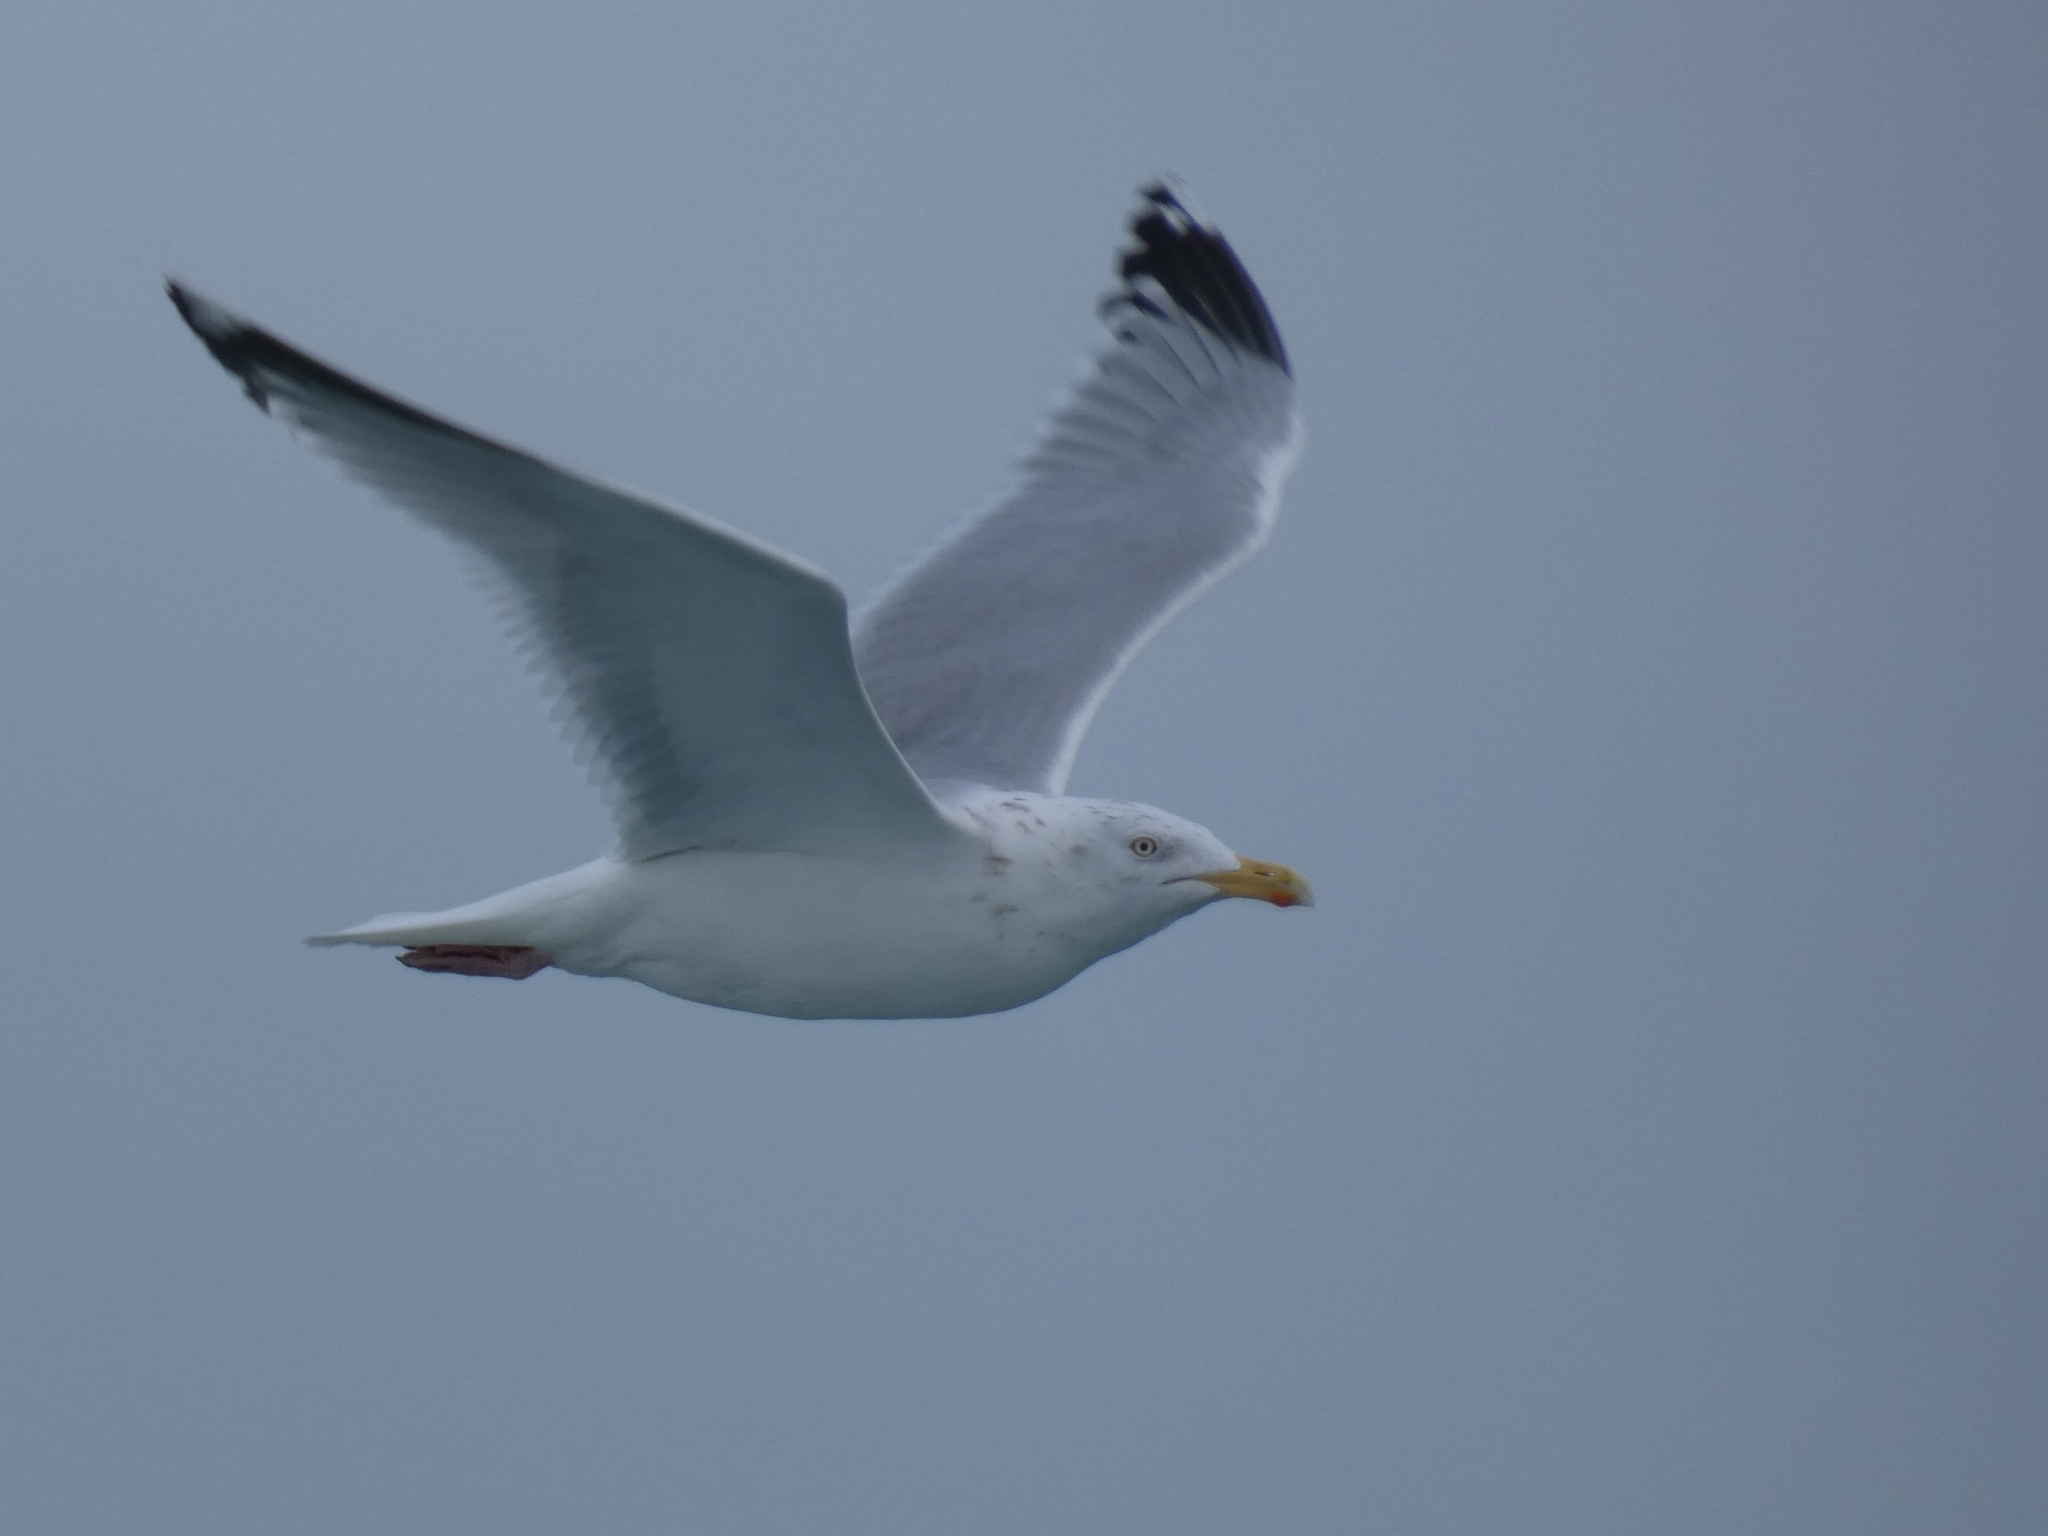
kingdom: Animalia
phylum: Chordata
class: Aves
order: Charadriiformes
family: Laridae
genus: Larus
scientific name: Larus argentatus
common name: Herring gull
